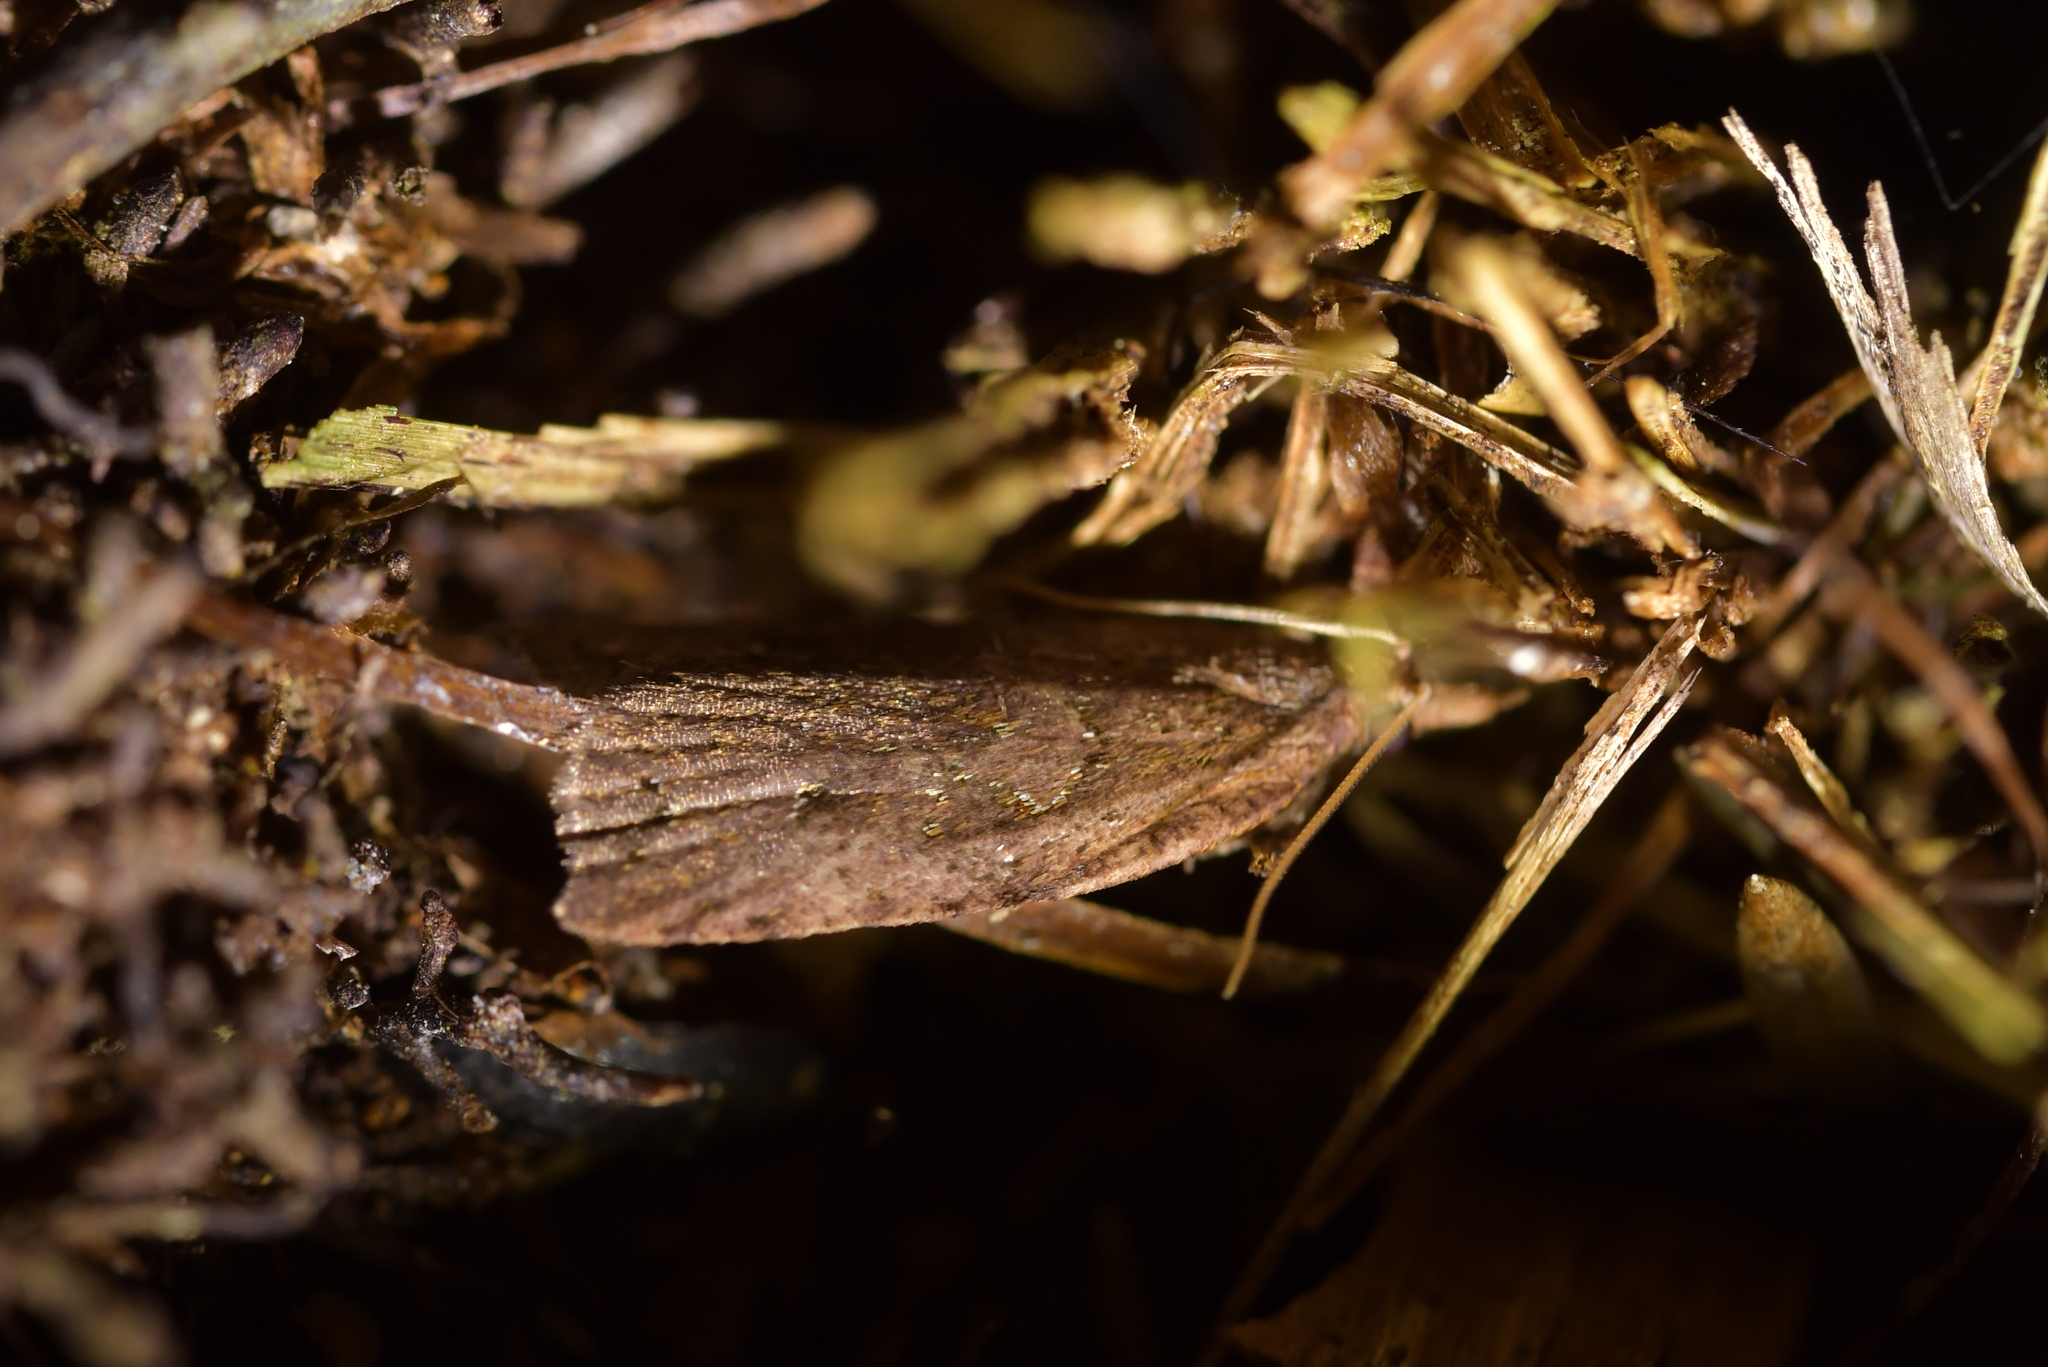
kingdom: Animalia
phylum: Arthropoda
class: Insecta
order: Lepidoptera
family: Tortricidae
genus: Planotortrix
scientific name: Planotortrix notophaea
